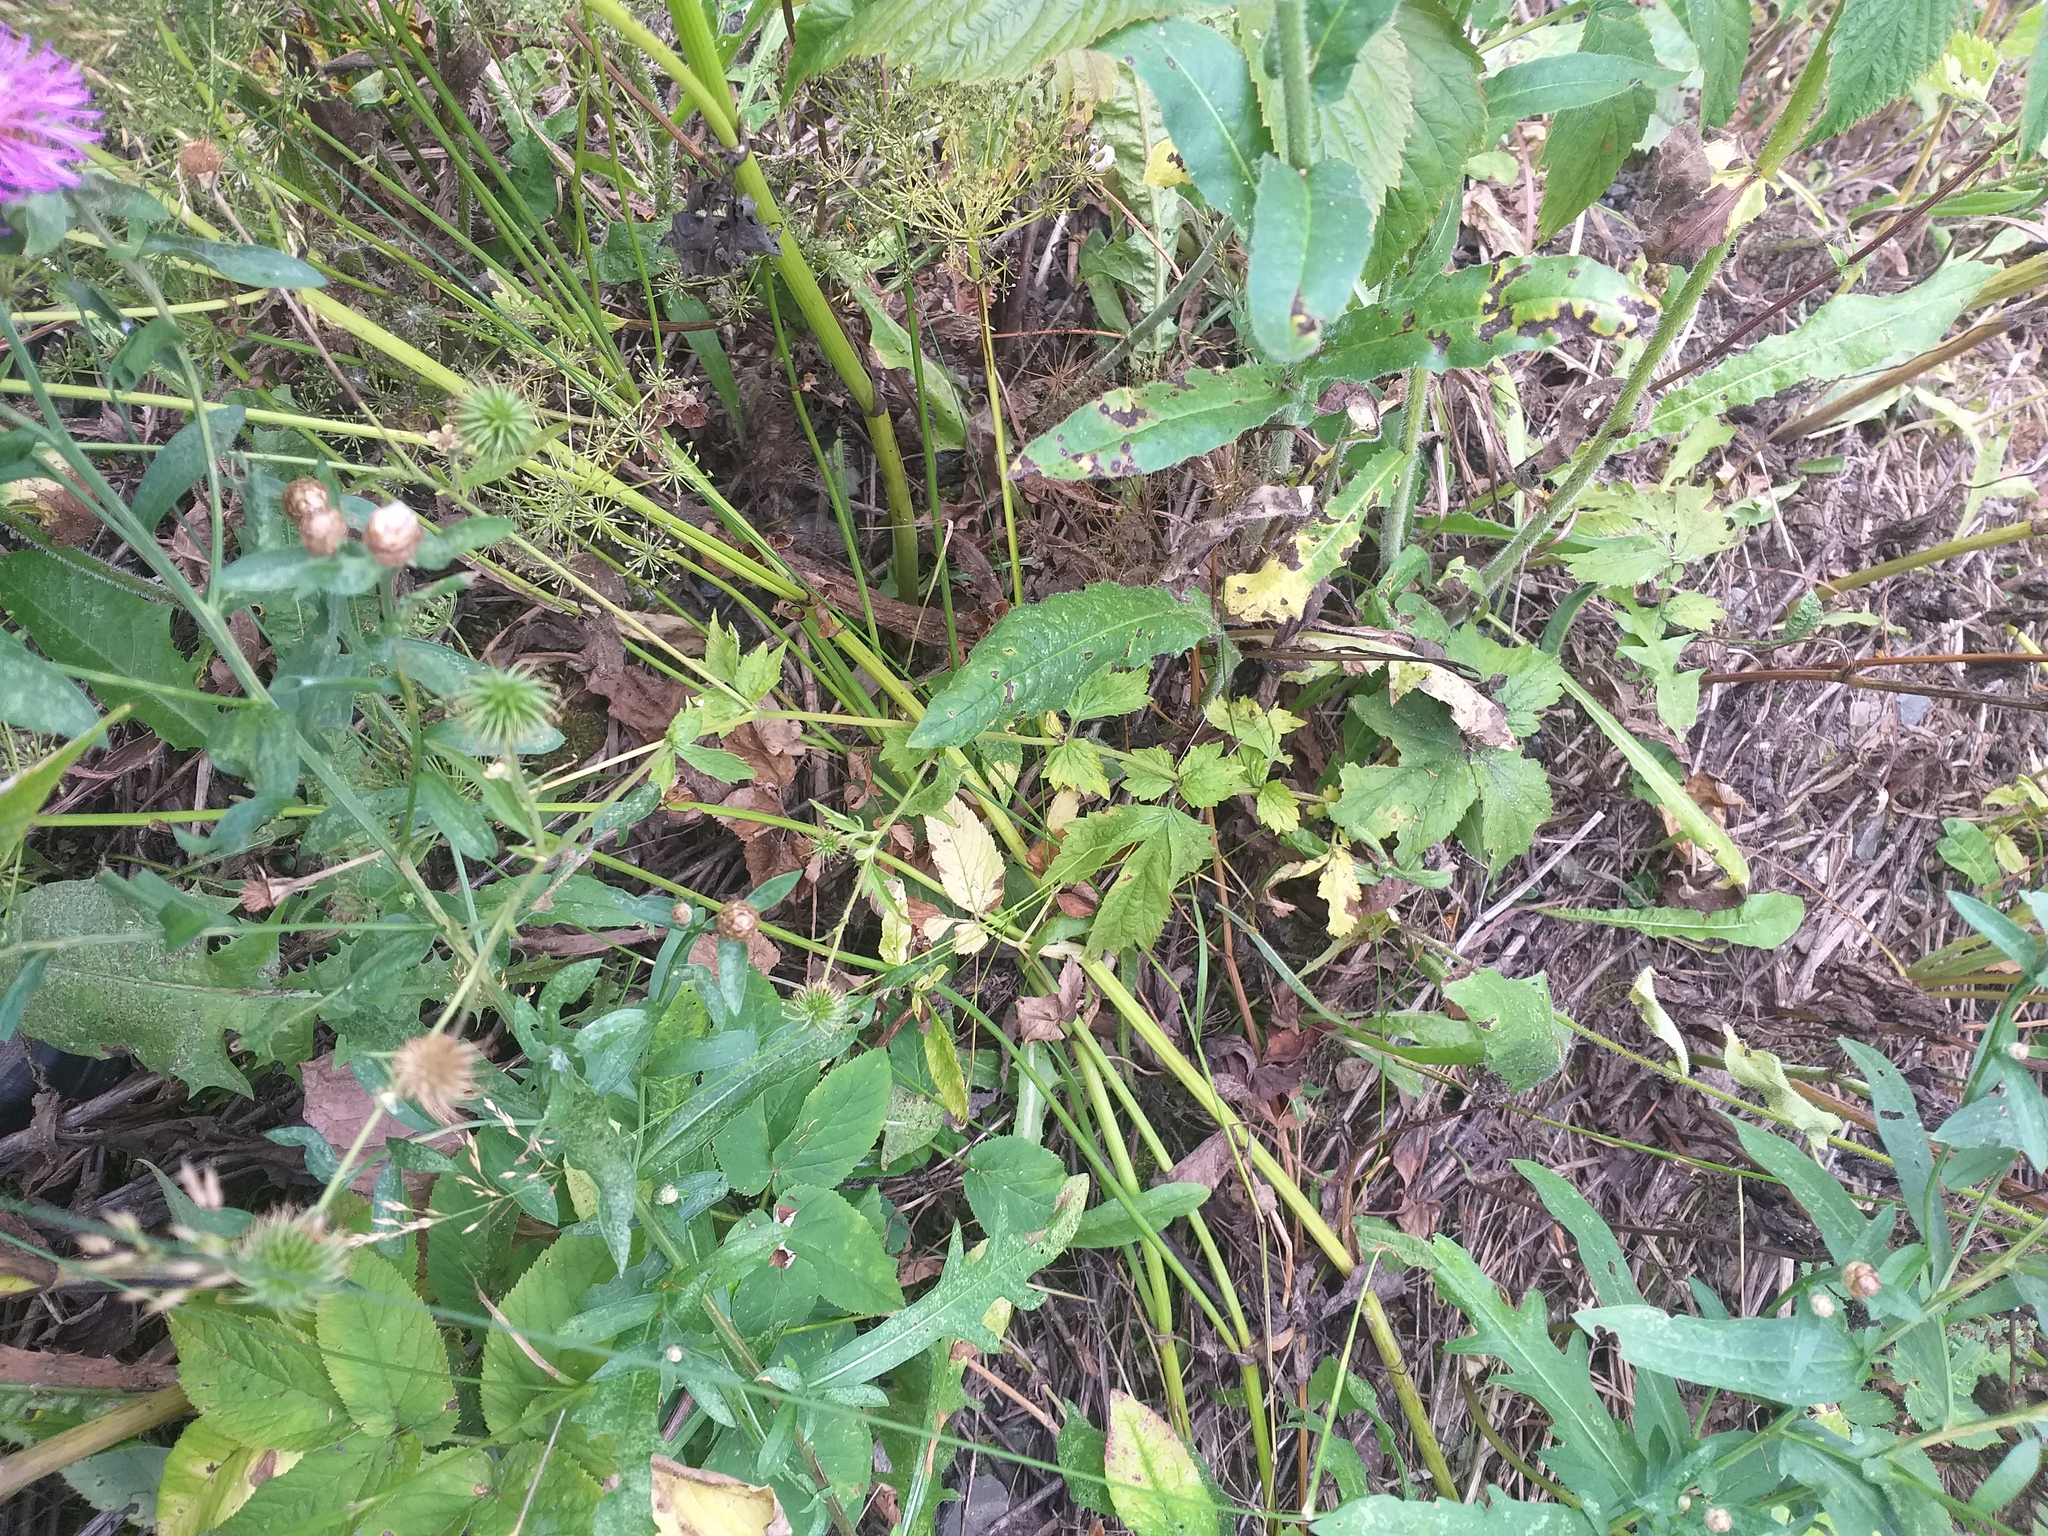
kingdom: Plantae
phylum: Tracheophyta
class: Magnoliopsida
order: Rosales
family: Rosaceae
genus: Geum
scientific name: Geum urbanum
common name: Wood avens
